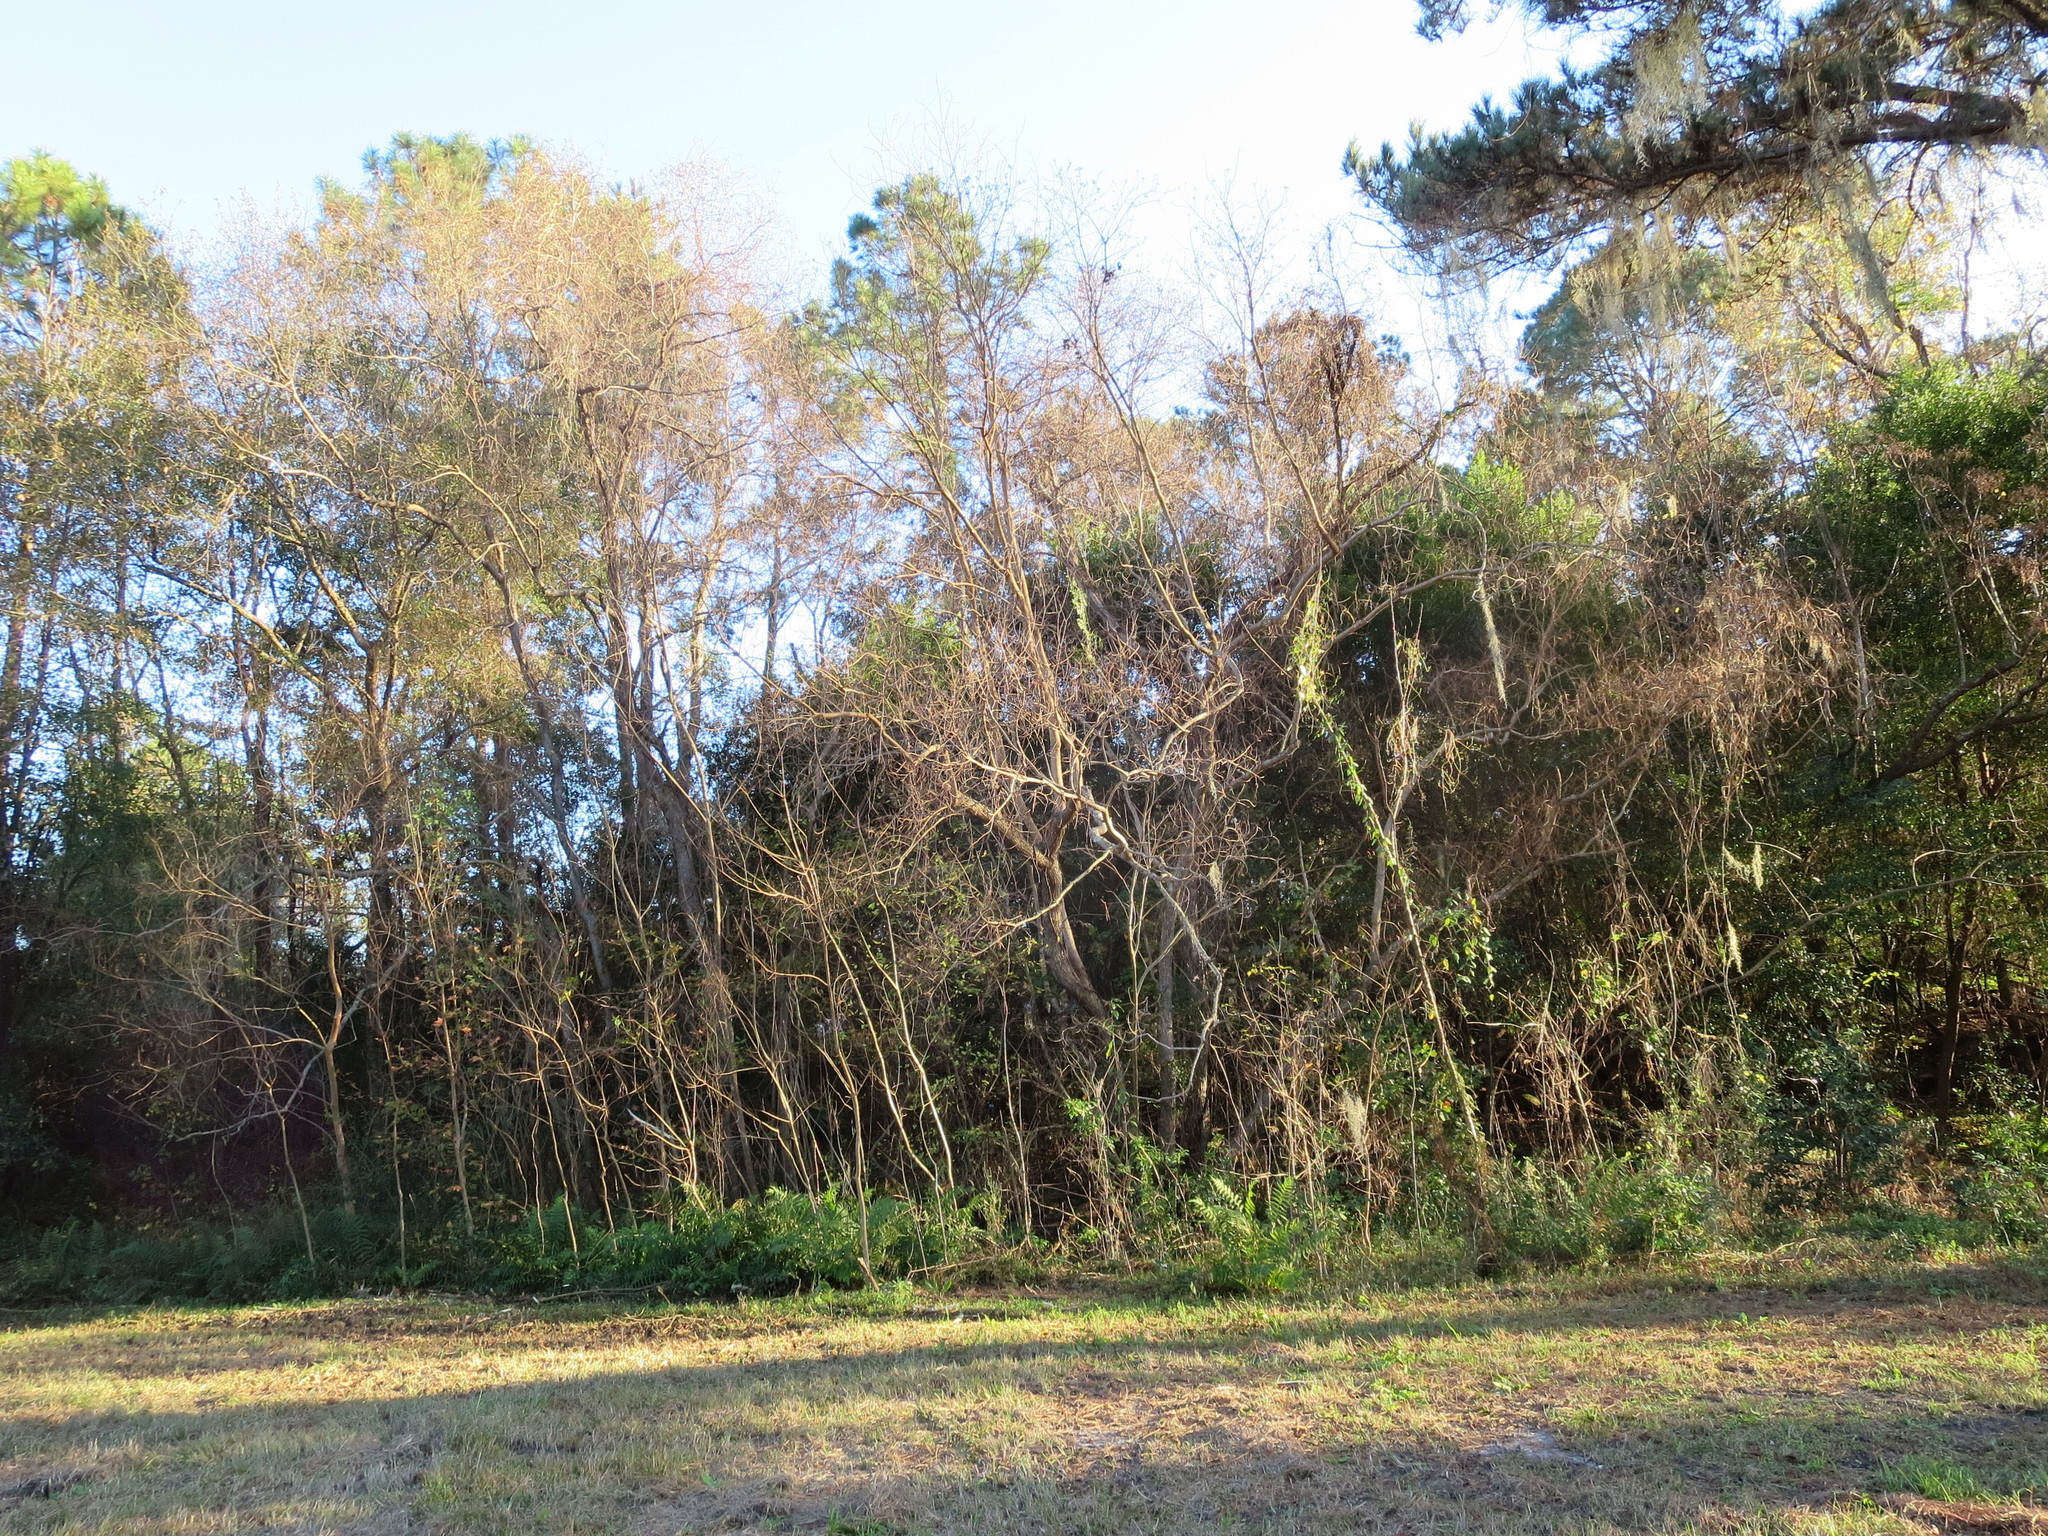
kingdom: Plantae
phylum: Tracheophyta
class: Magnoliopsida
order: Malpighiales
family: Euphorbiaceae
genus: Triadica
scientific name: Triadica sebifera
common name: Chinese tallow
